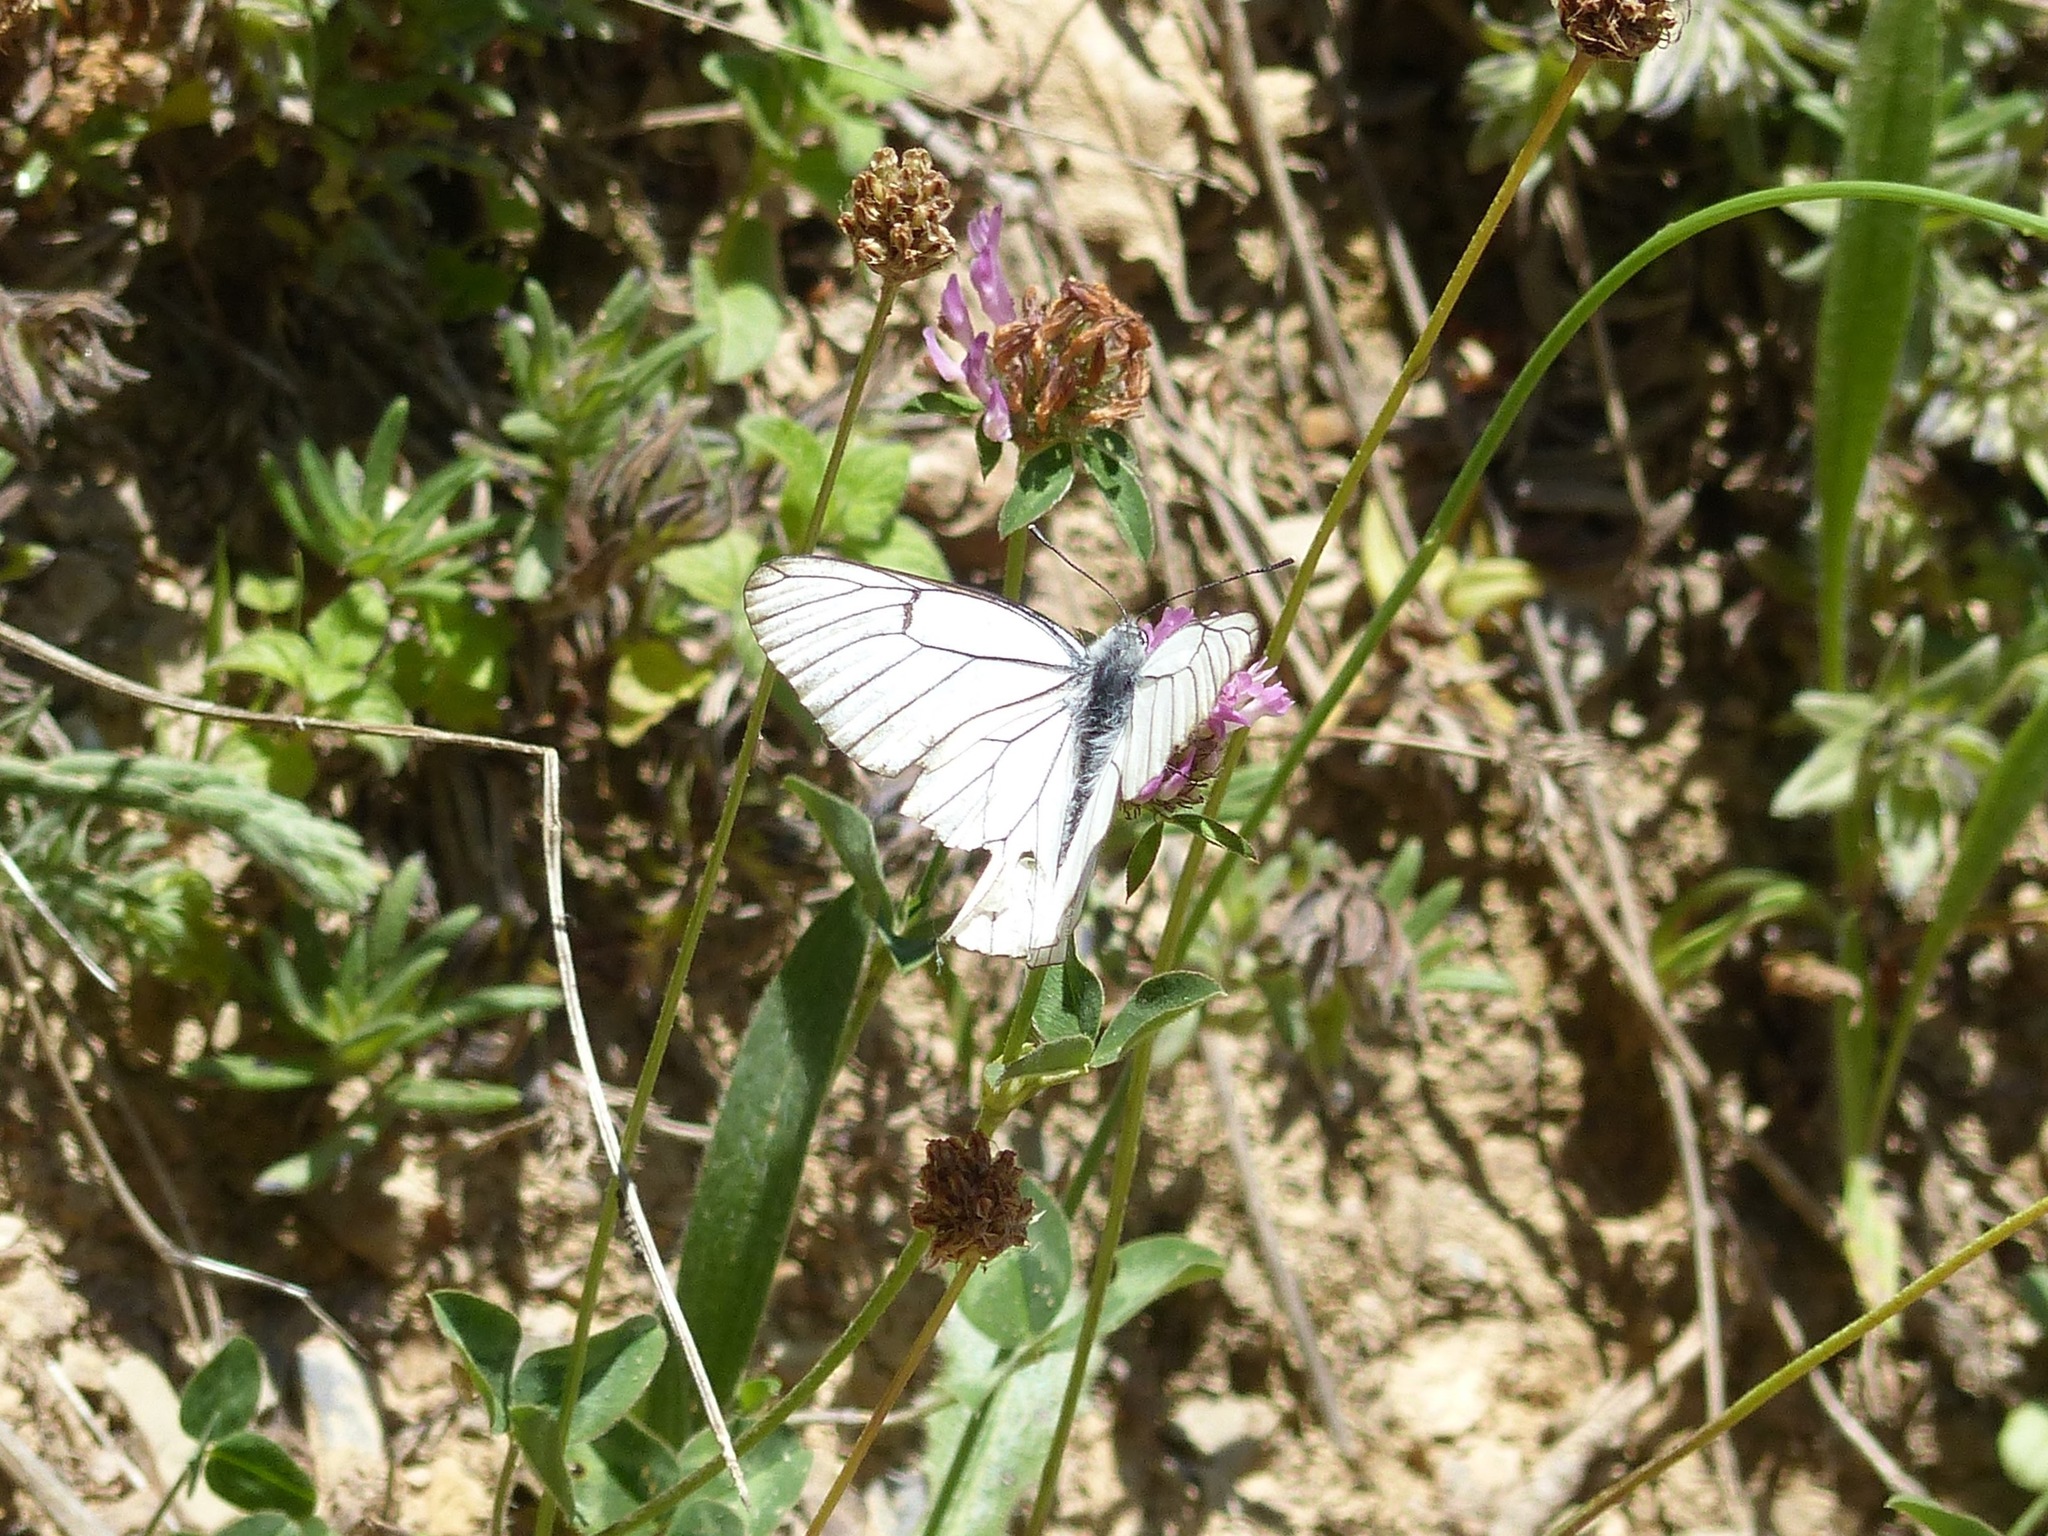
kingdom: Animalia
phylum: Arthropoda
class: Insecta
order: Lepidoptera
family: Pieridae
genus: Aporia
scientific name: Aporia crataegi
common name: Black-veined white
